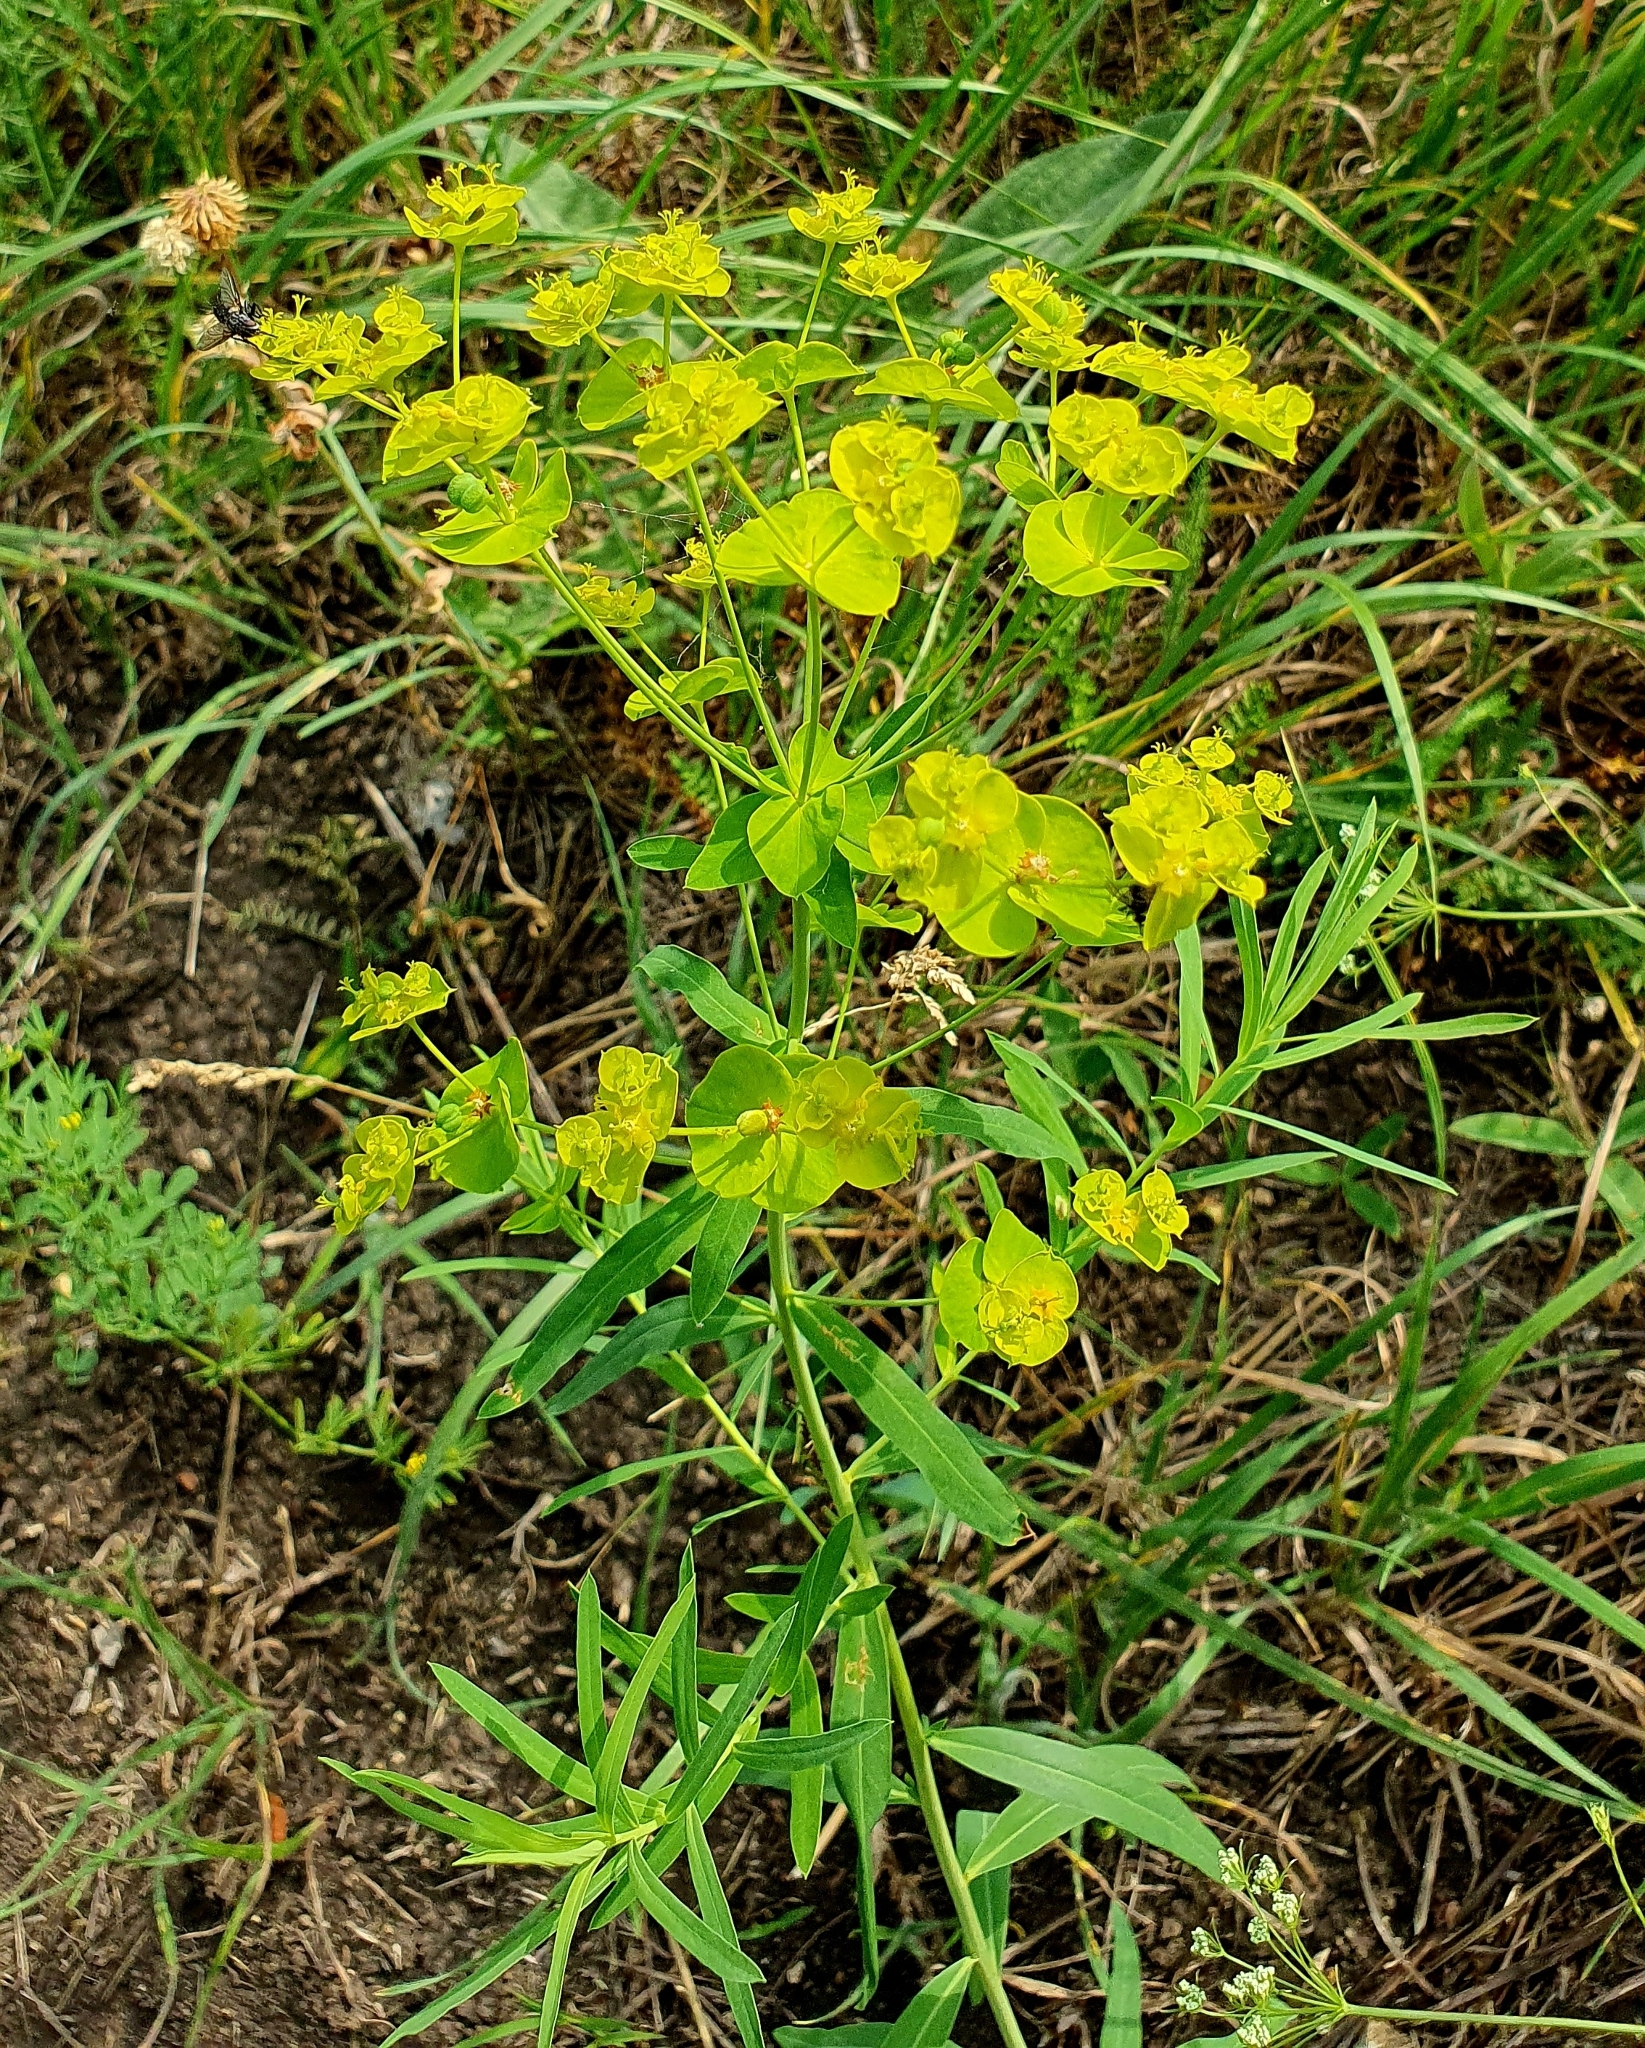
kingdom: Plantae
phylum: Tracheophyta
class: Magnoliopsida
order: Malpighiales
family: Euphorbiaceae
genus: Euphorbia
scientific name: Euphorbia virgata
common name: Leafy spurge
